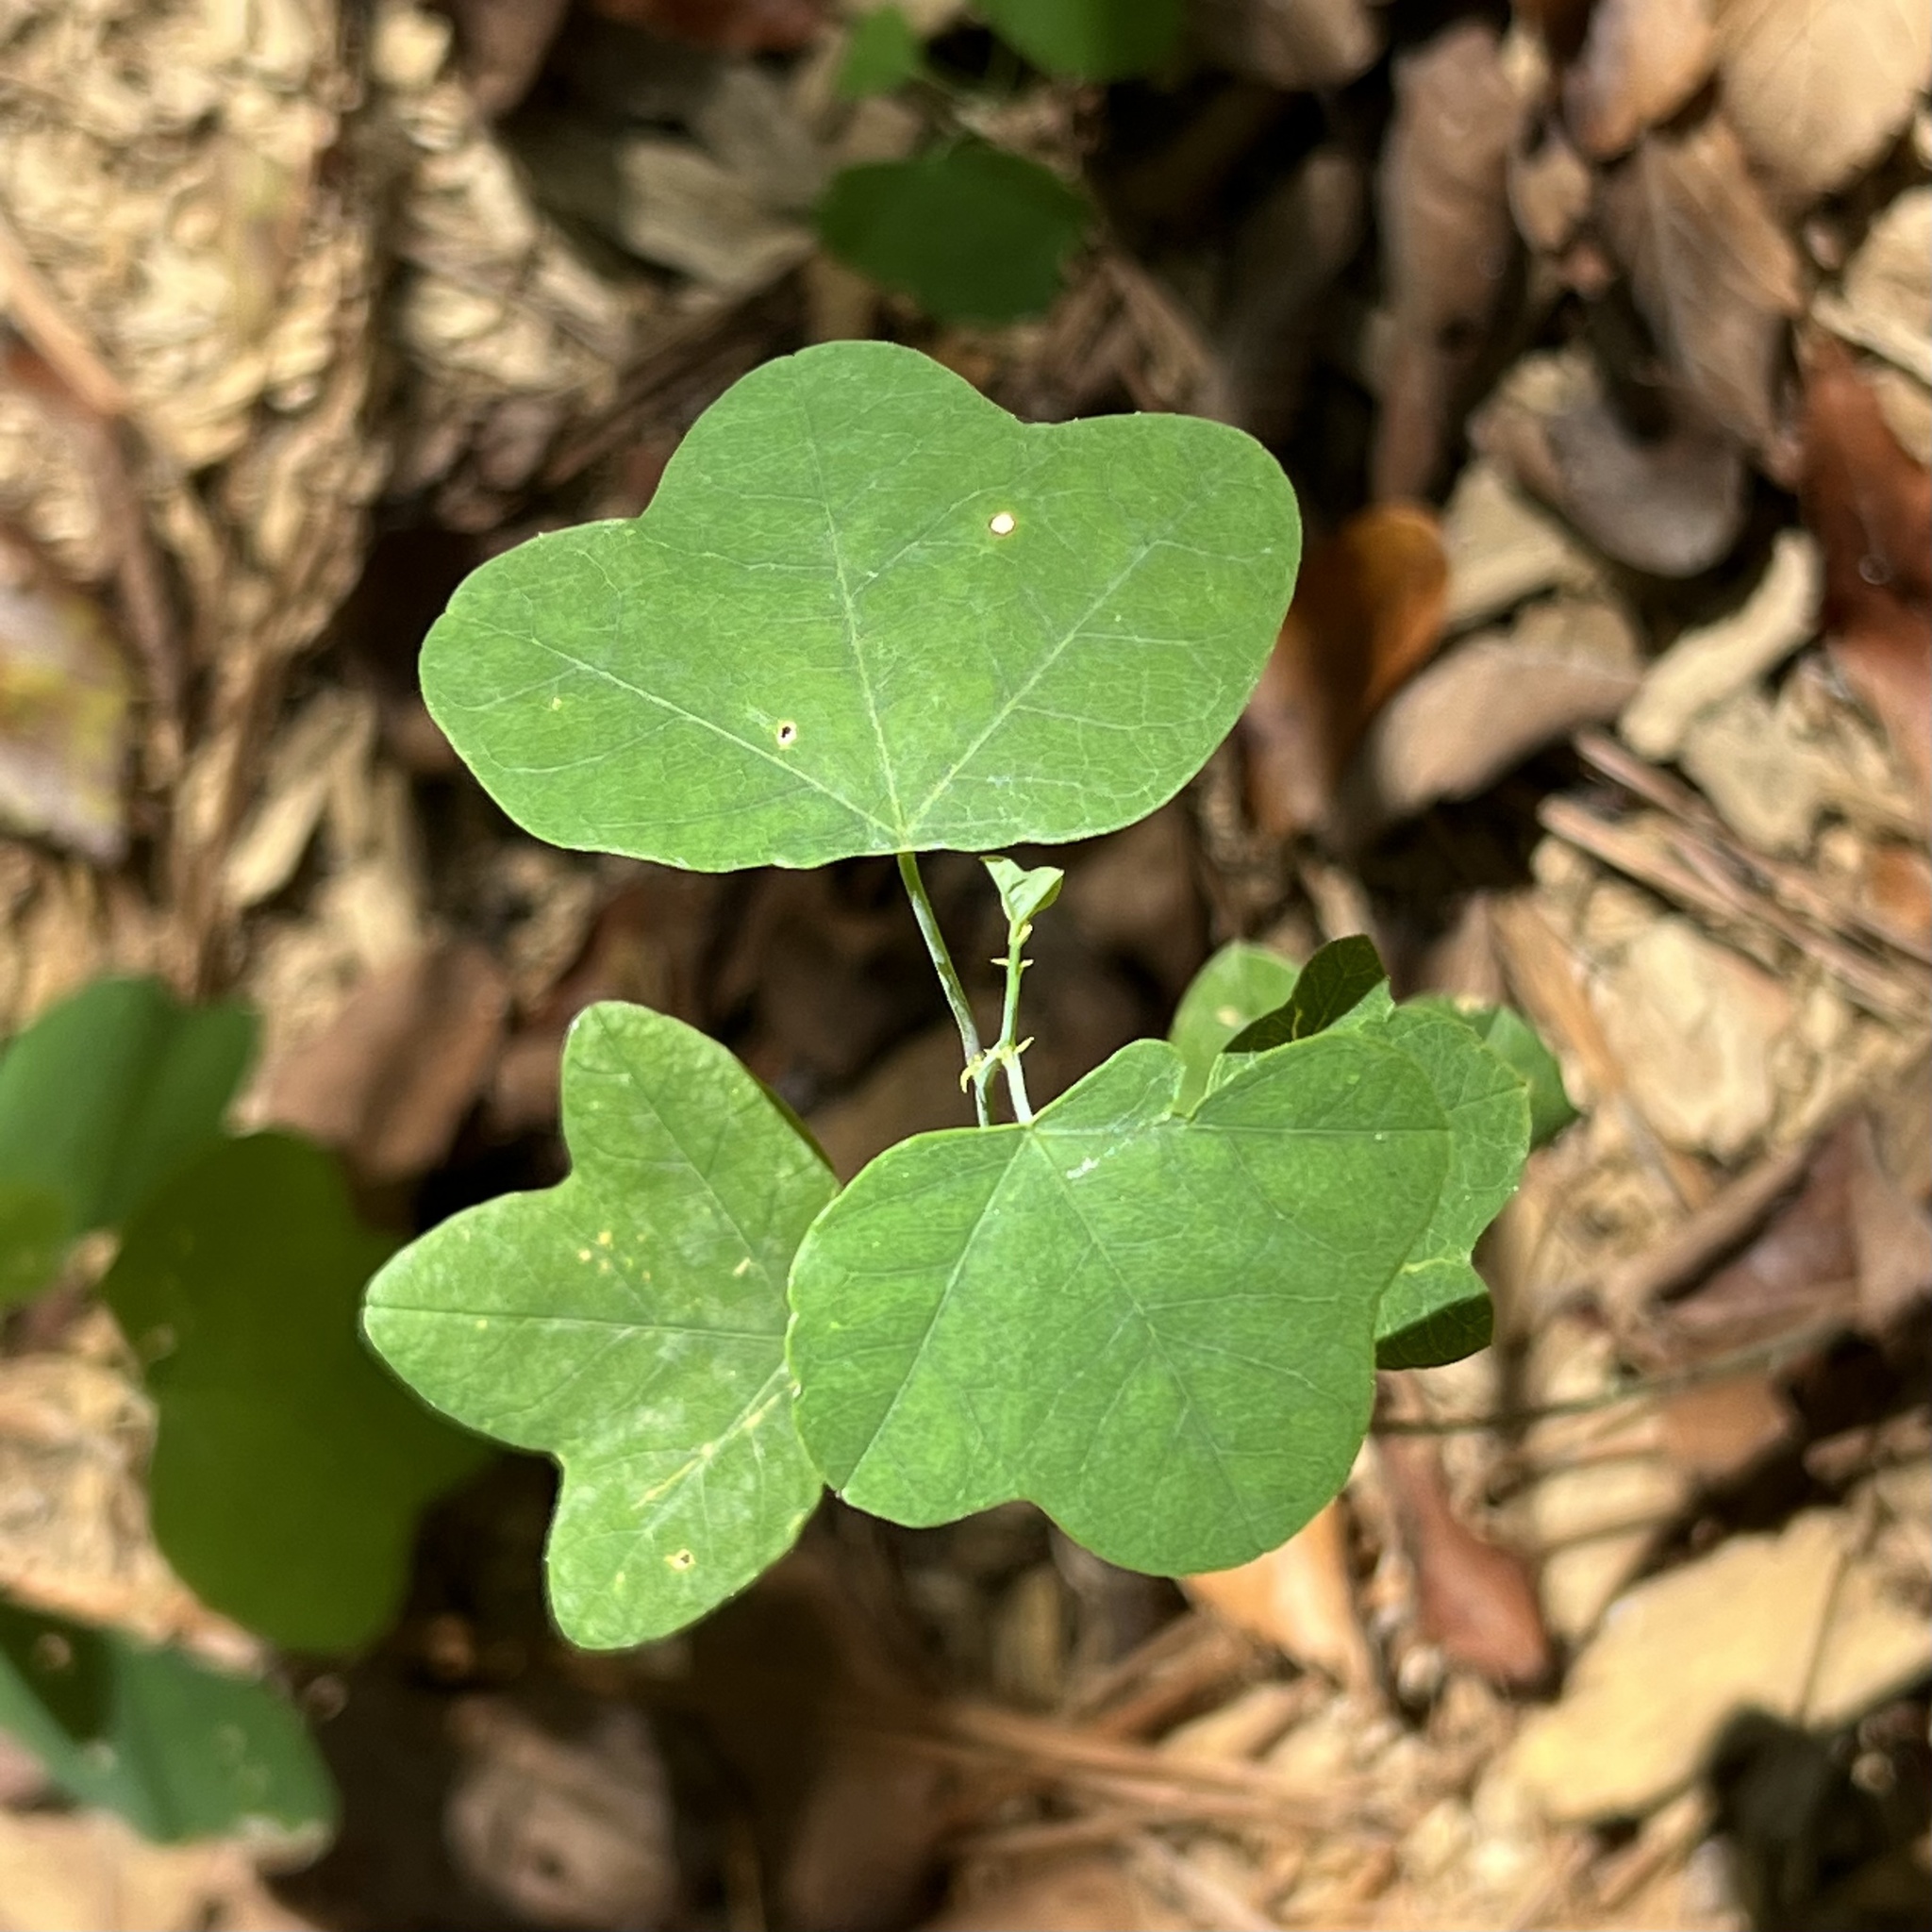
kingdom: Plantae
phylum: Tracheophyta
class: Magnoliopsida
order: Malpighiales
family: Passifloraceae
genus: Passiflora
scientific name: Passiflora lutea
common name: Yellow passionflower
